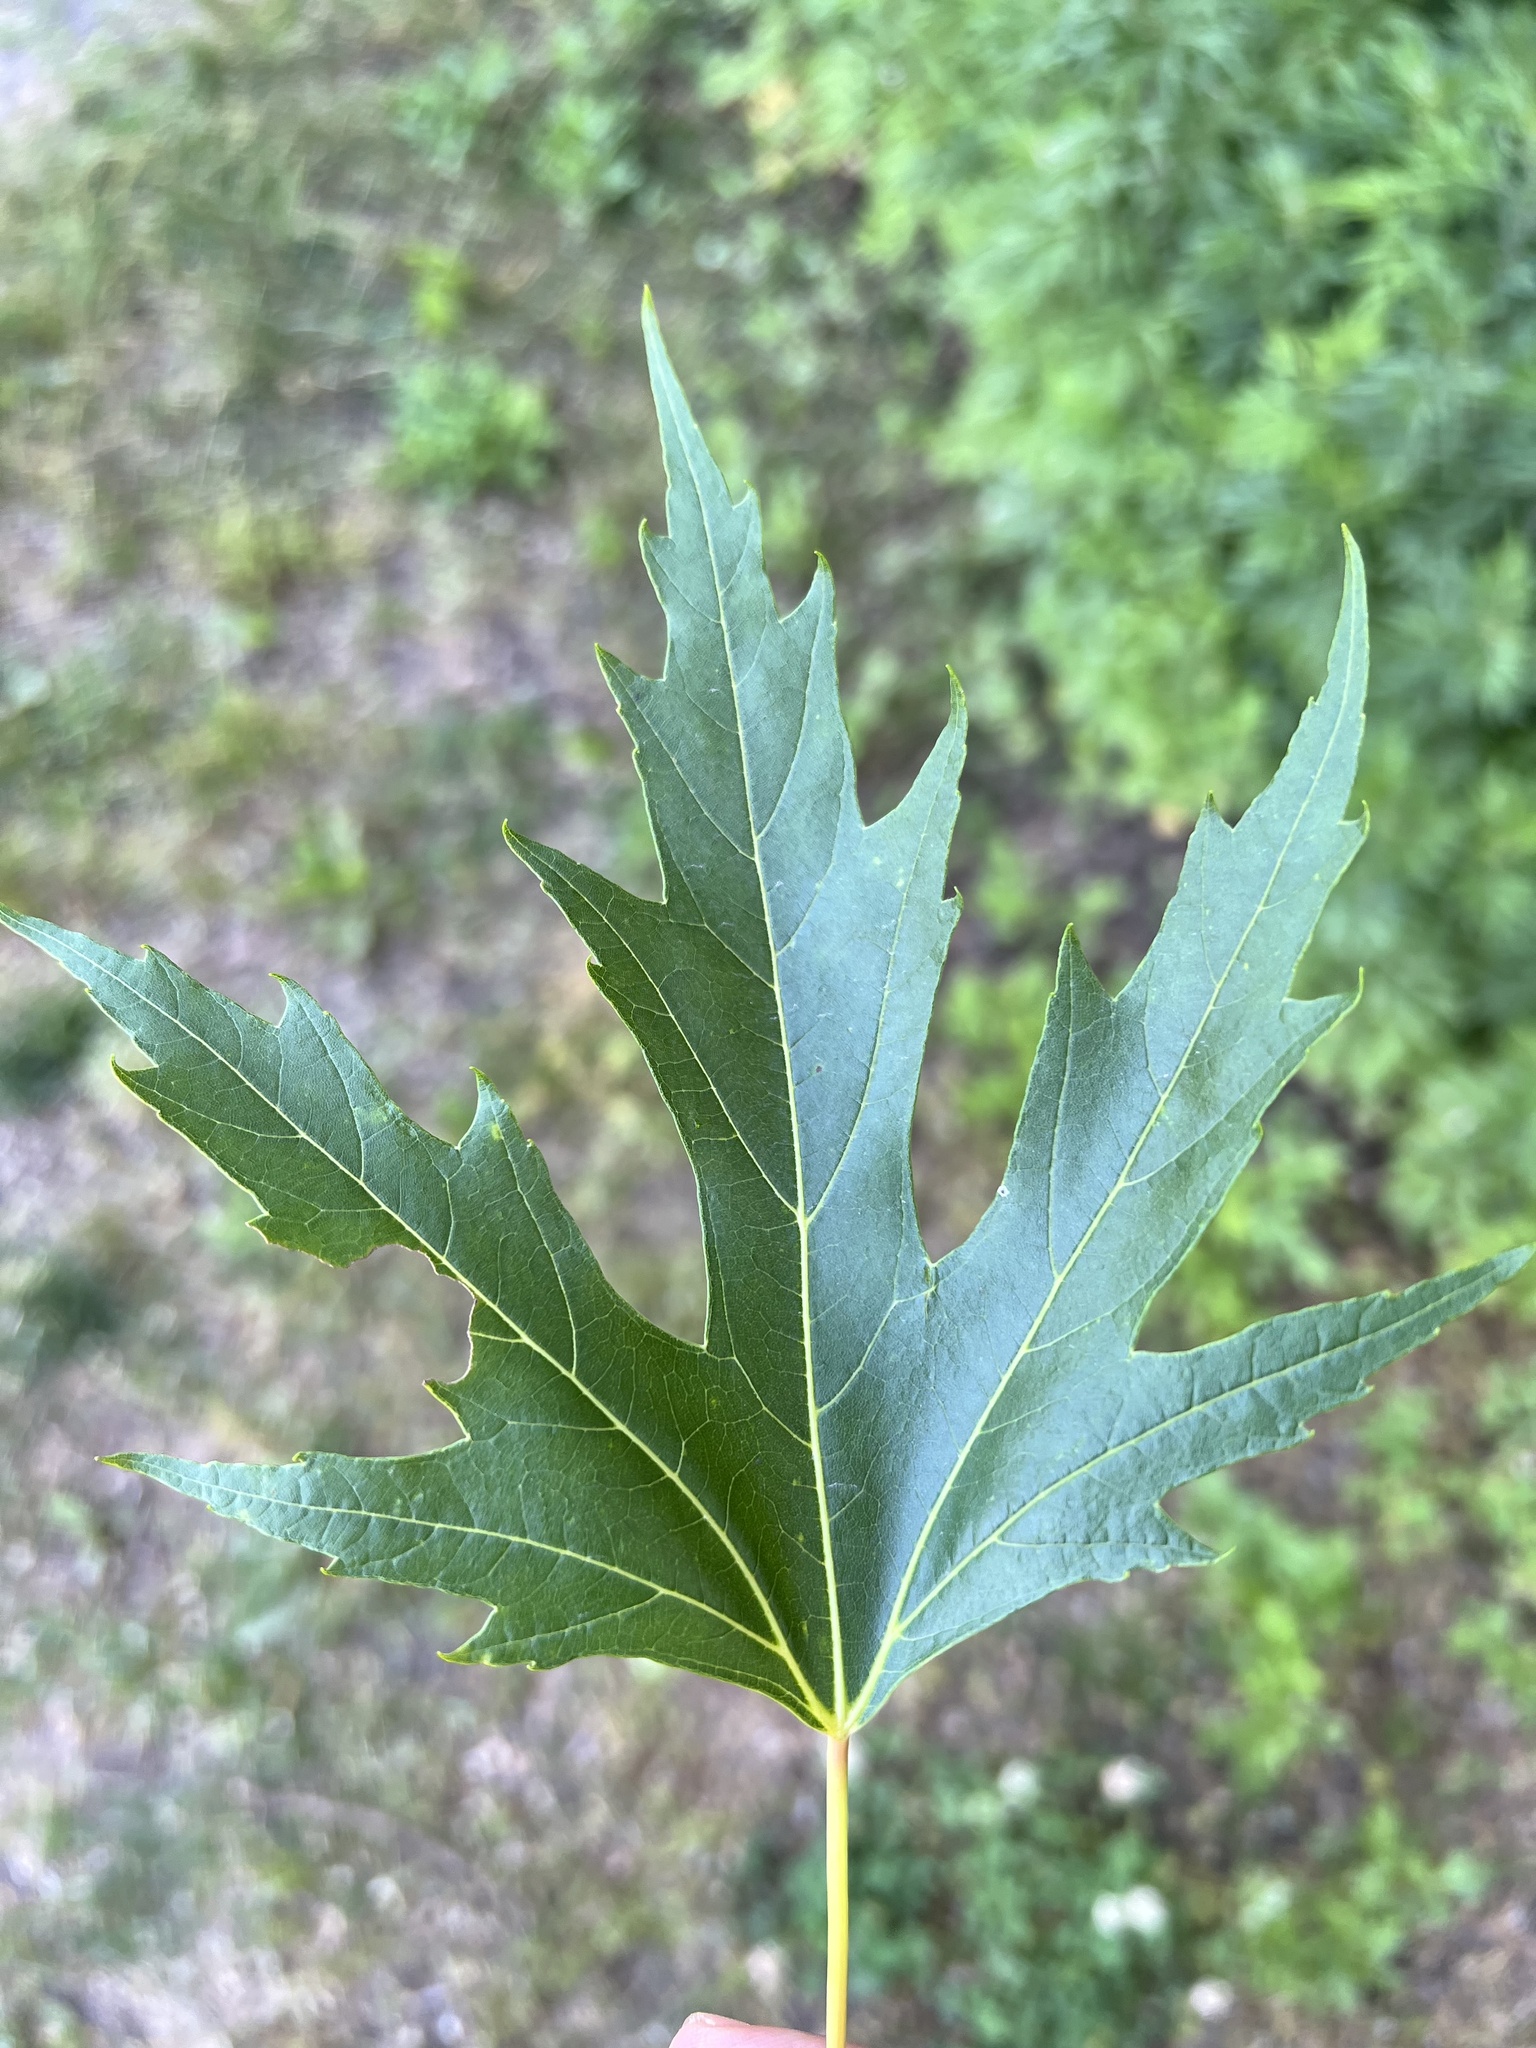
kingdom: Plantae
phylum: Tracheophyta
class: Magnoliopsida
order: Sapindales
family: Sapindaceae
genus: Acer
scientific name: Acer saccharinum
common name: Silver maple
